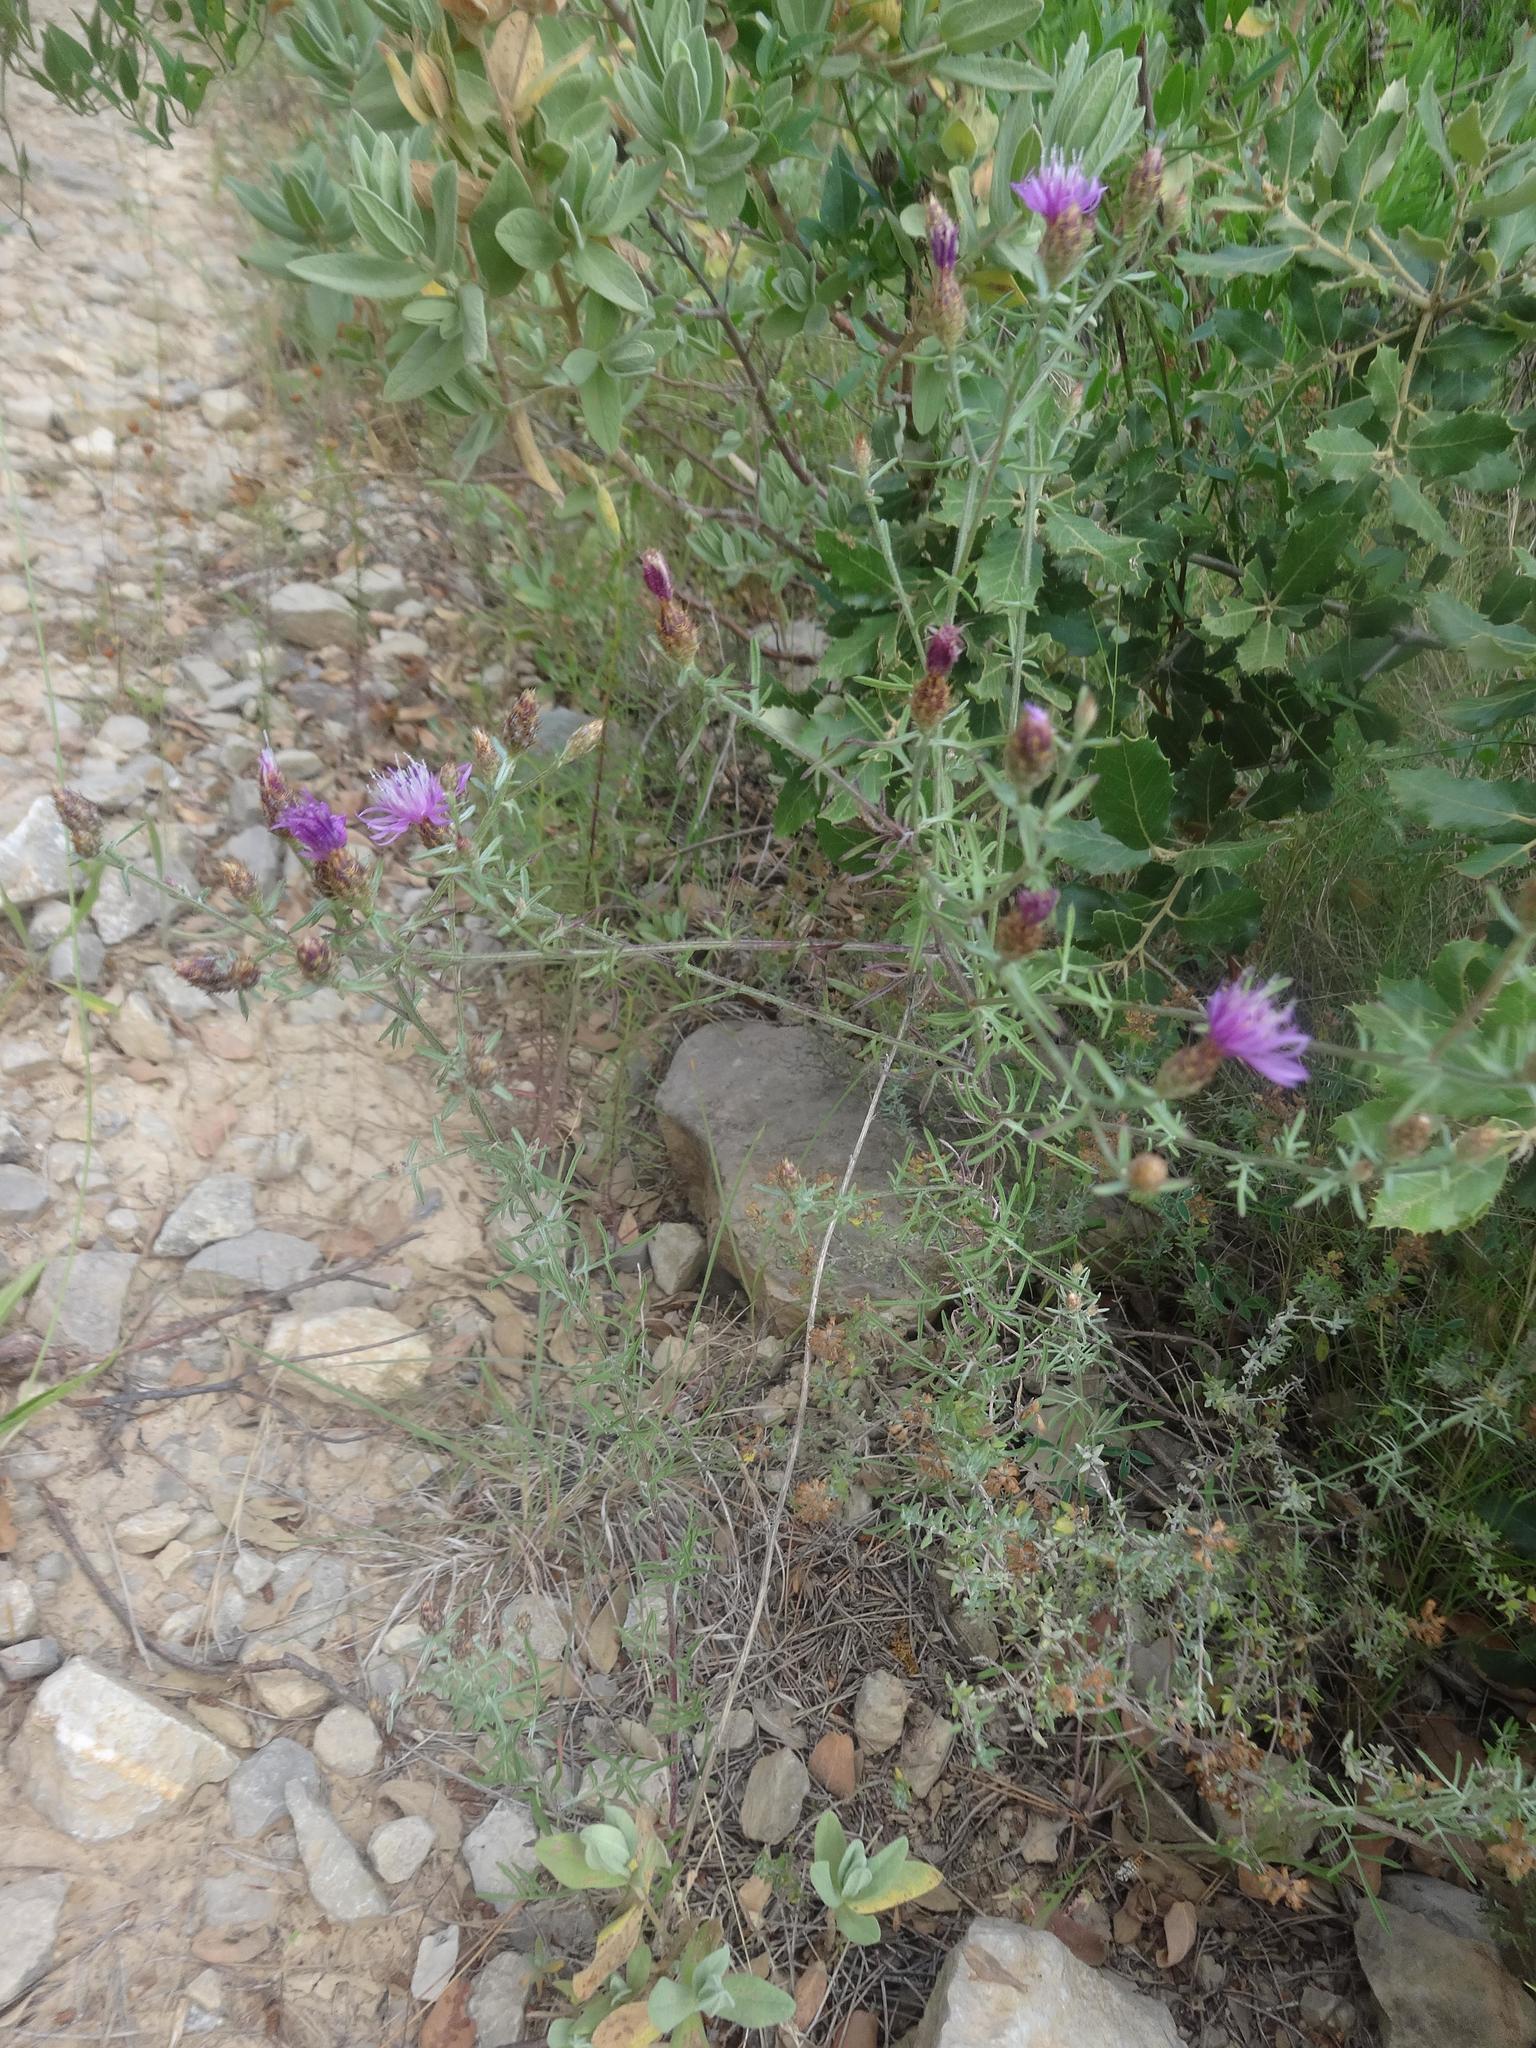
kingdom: Plantae
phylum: Tracheophyta
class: Magnoliopsida
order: Asterales
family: Asteraceae
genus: Centaurea
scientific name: Centaurea stoebe
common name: Spotted knapweed
